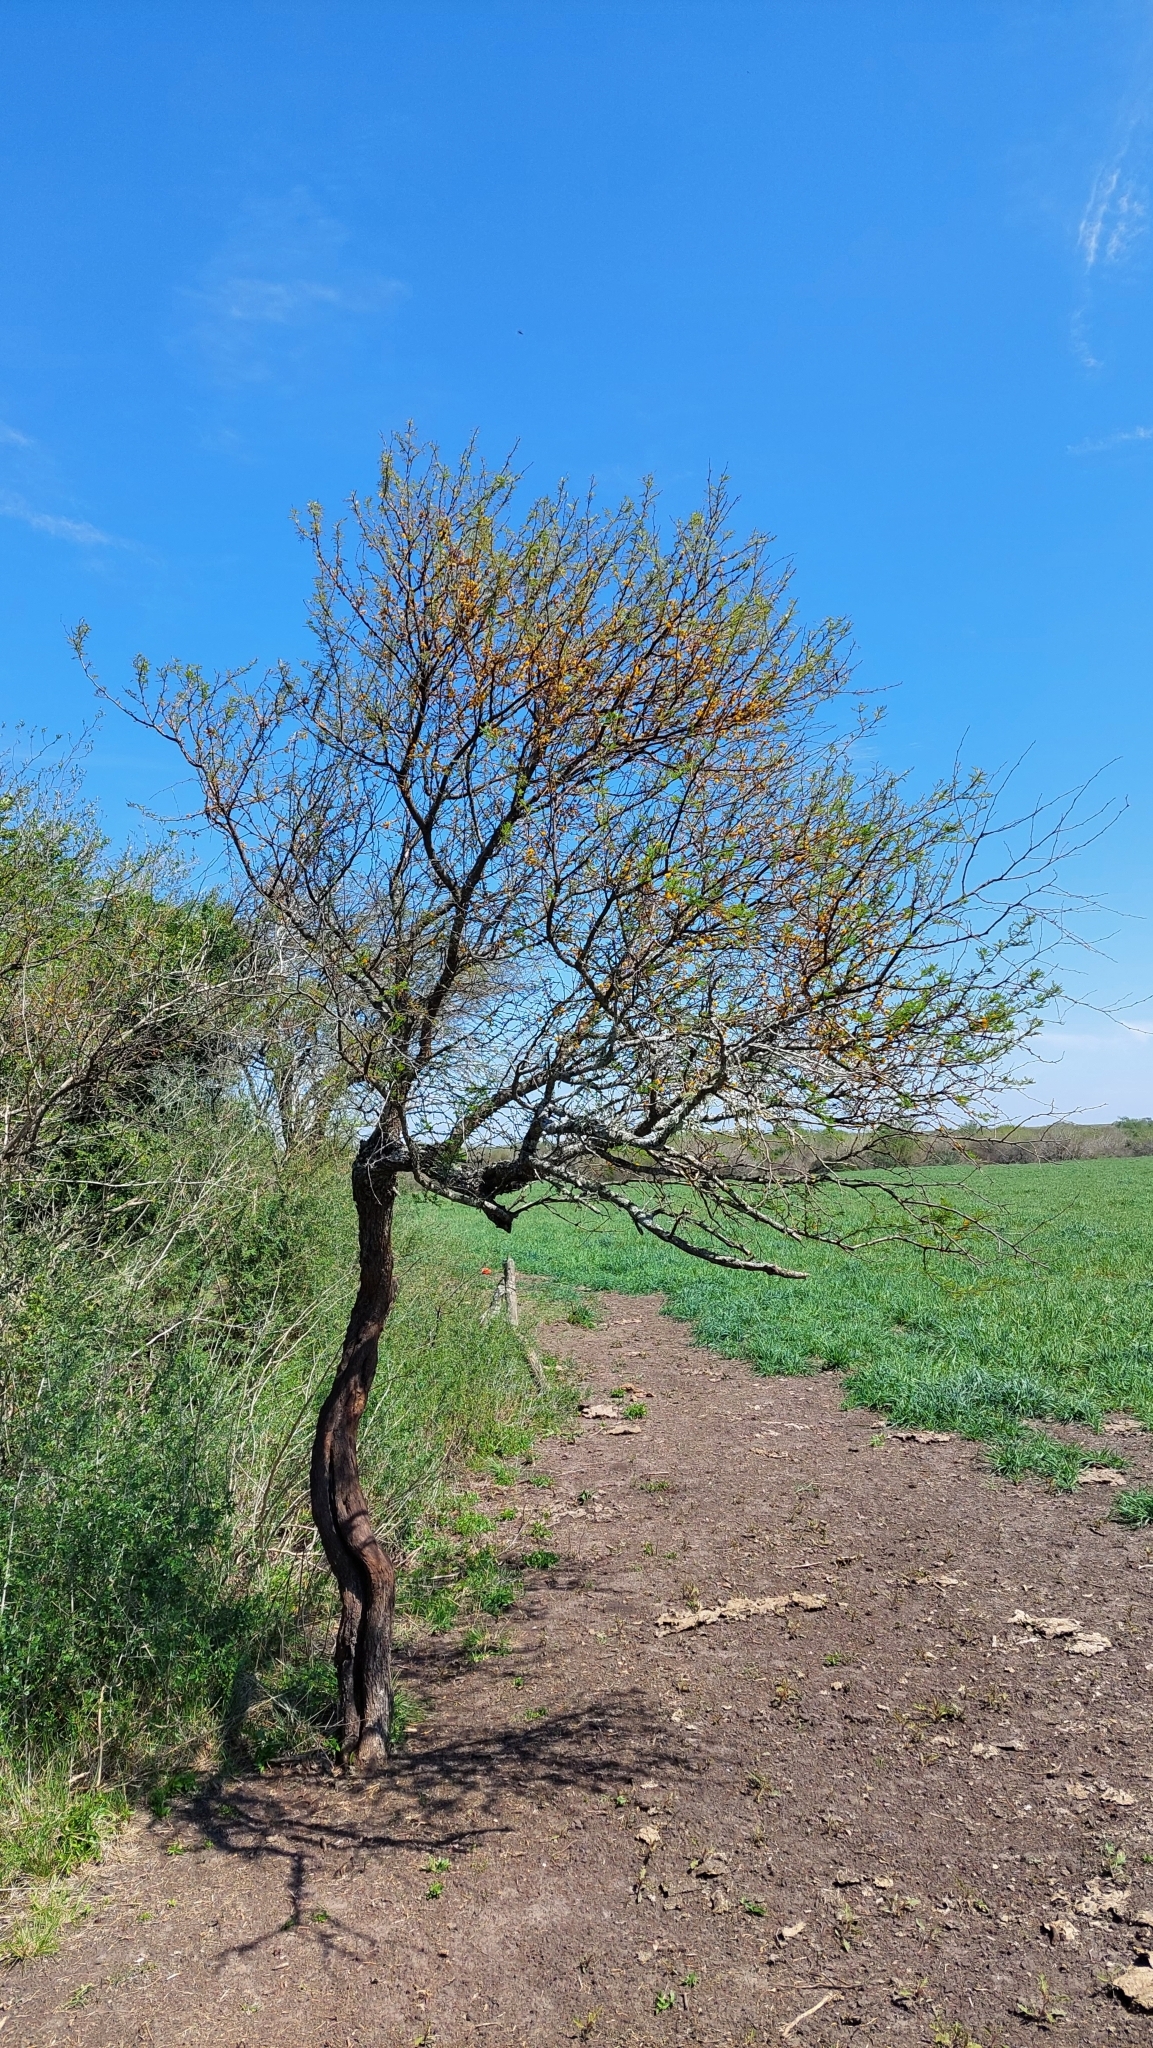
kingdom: Plantae
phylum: Tracheophyta
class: Magnoliopsida
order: Fabales
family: Fabaceae
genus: Vachellia
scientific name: Vachellia caven
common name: Roman cassie
